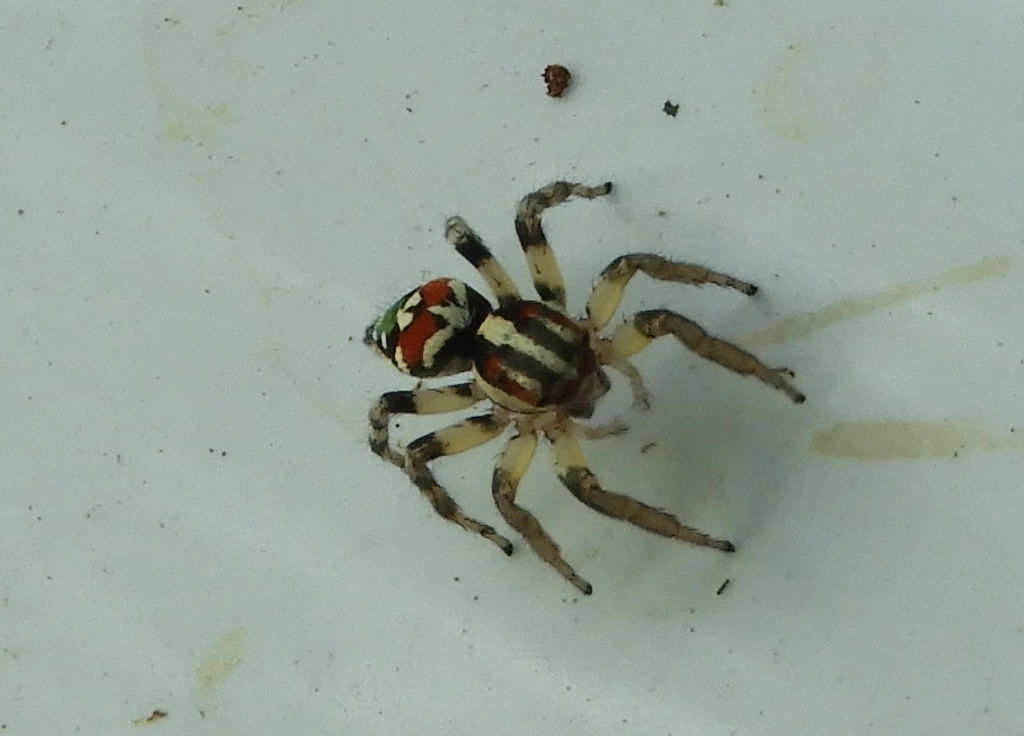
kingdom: Animalia
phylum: Arthropoda
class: Arachnida
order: Araneae
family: Salticidae
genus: Nycerella
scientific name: Nycerella delecta
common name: Jumping spiders
